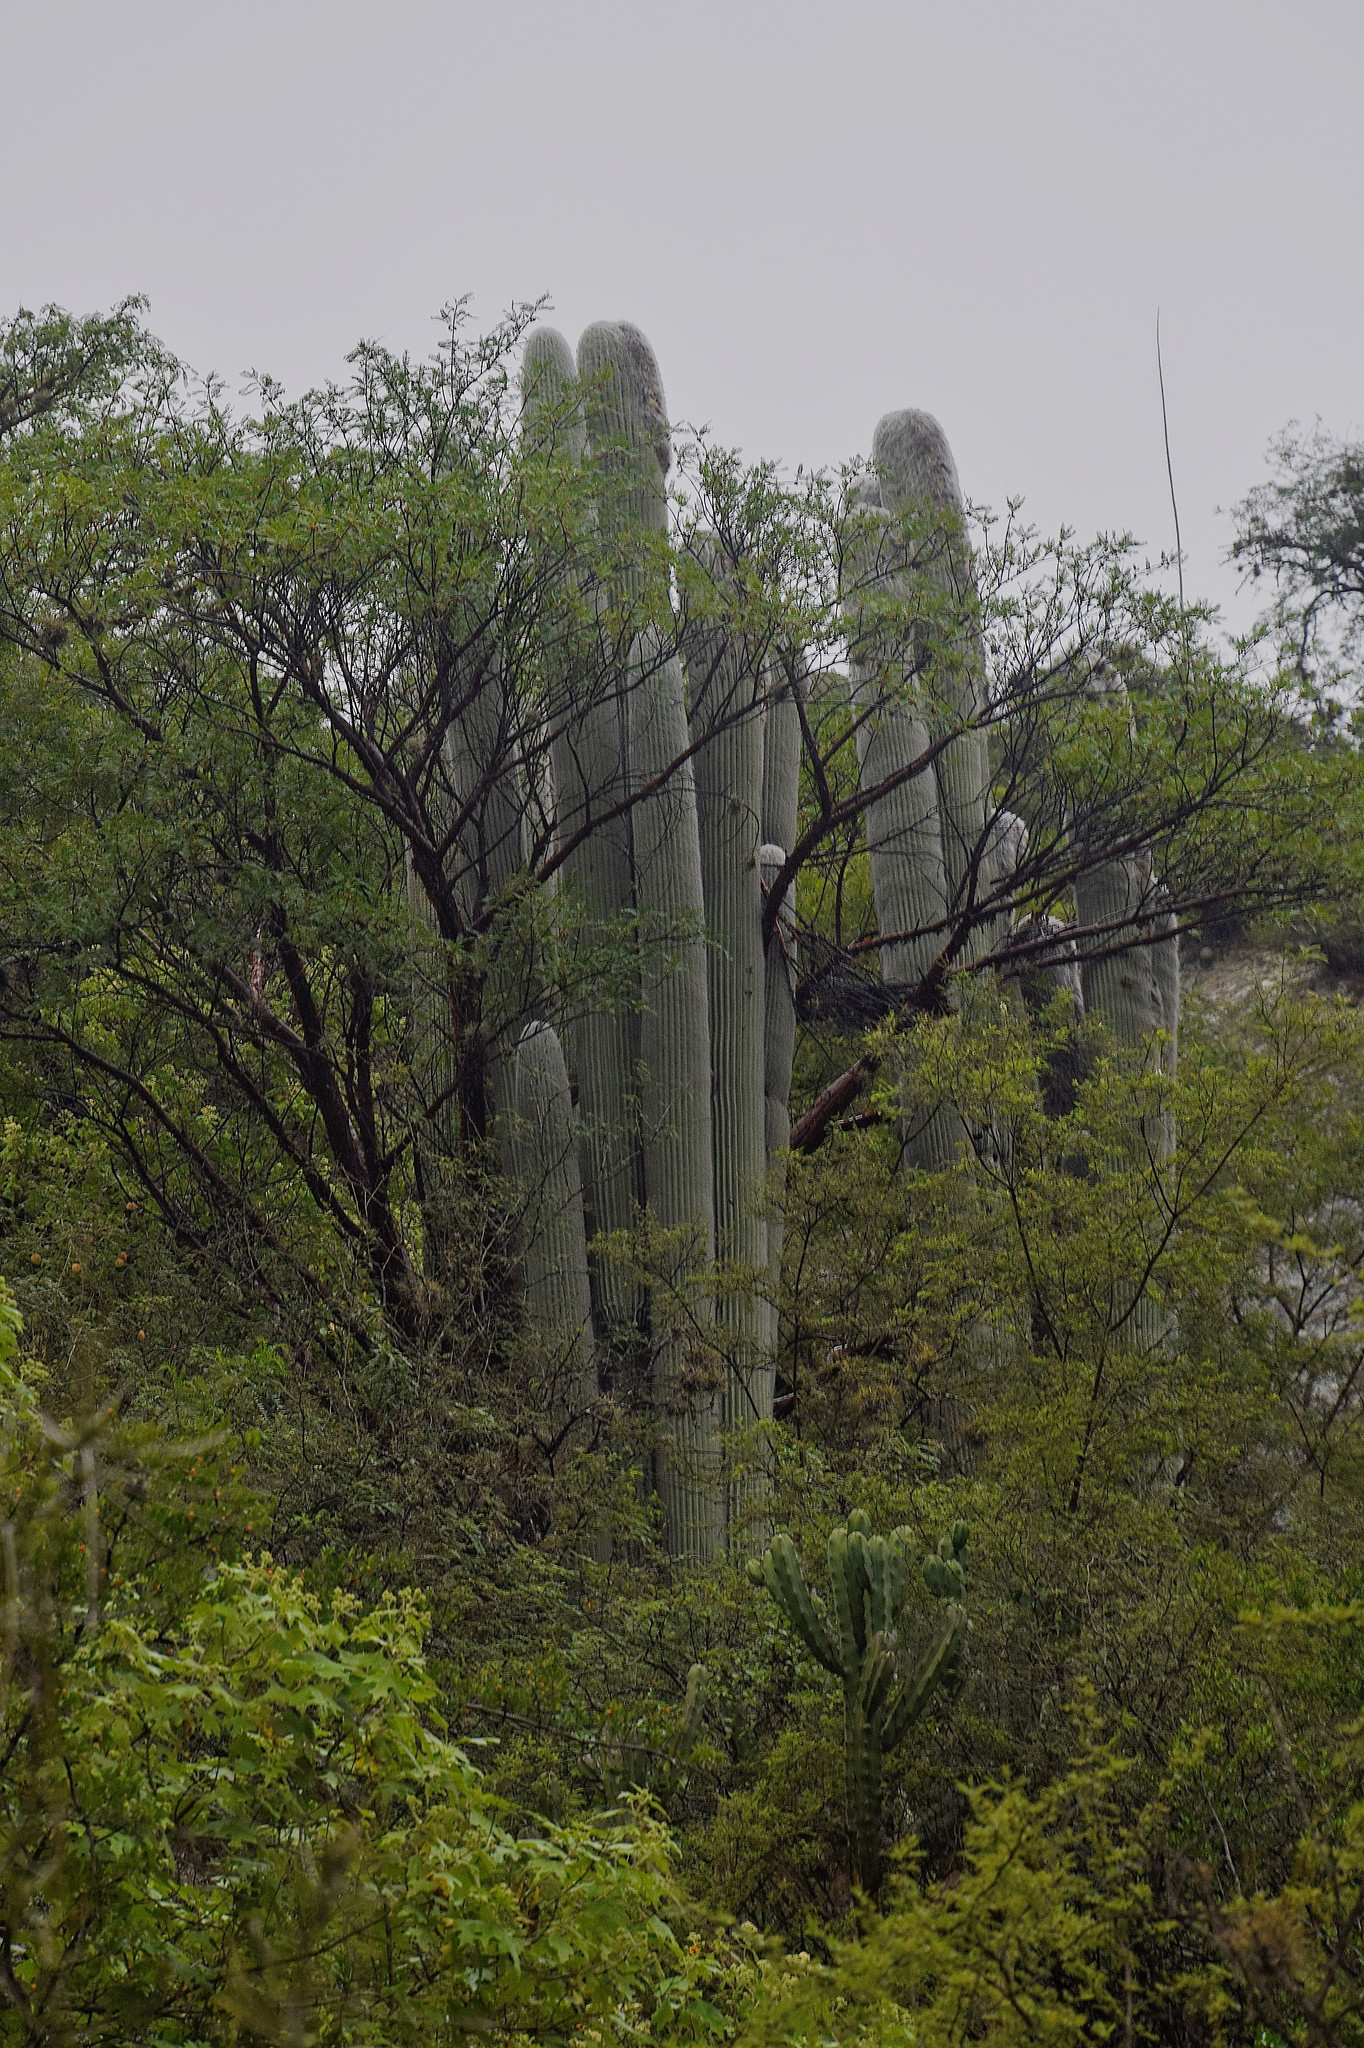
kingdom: Plantae
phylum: Tracheophyta
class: Magnoliopsida
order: Caryophyllales
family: Cactaceae
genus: Cephalocereus
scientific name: Cephalocereus senilis
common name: Old man cactus
